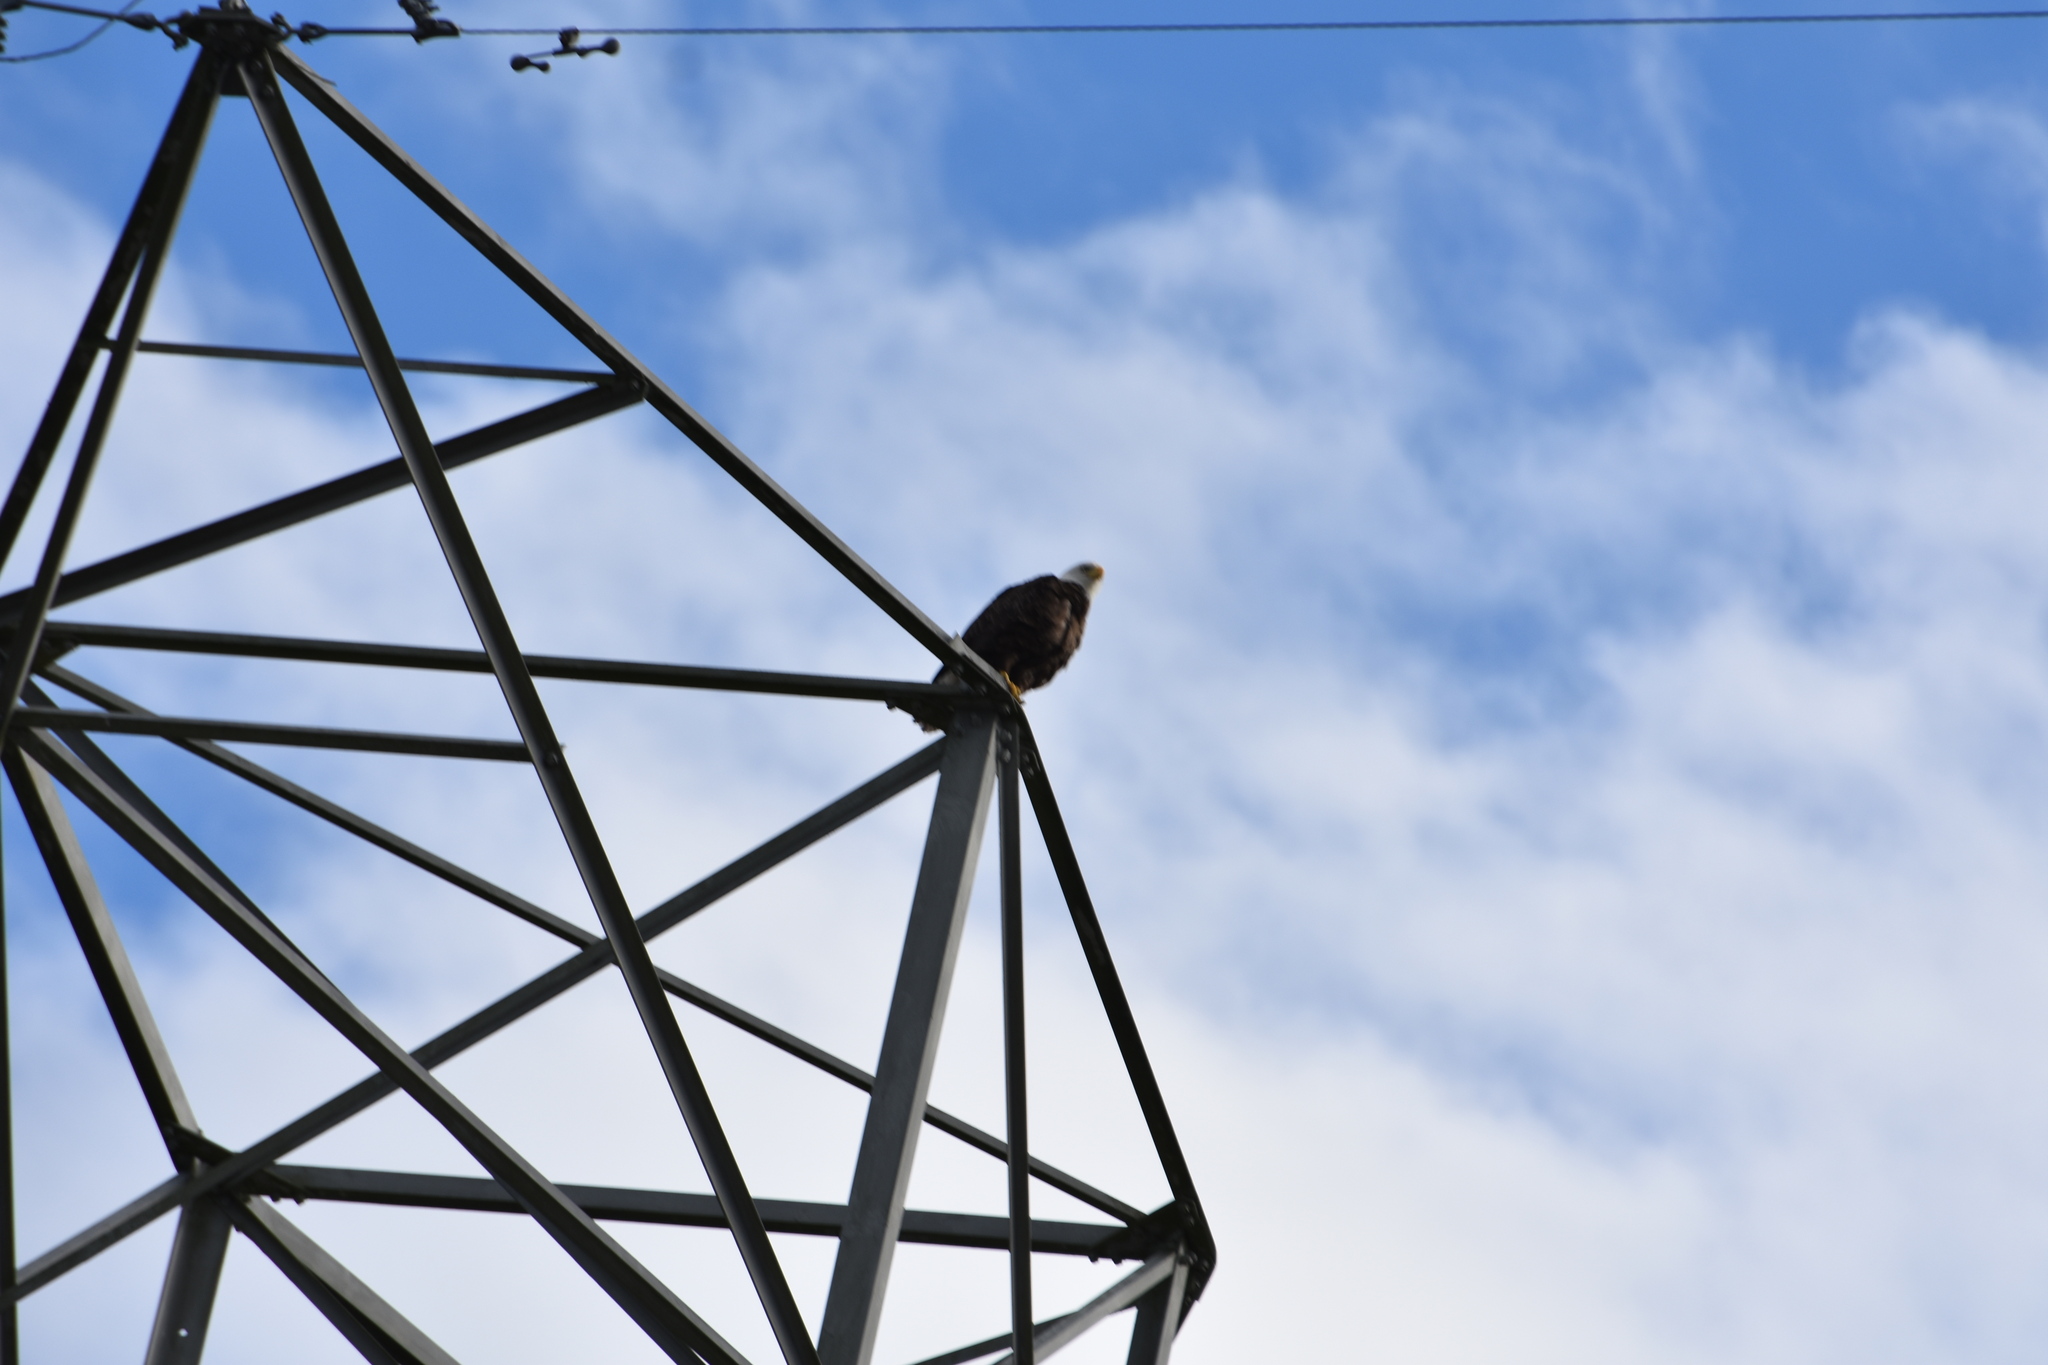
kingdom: Animalia
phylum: Chordata
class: Aves
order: Accipitriformes
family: Accipitridae
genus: Haliaeetus
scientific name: Haliaeetus leucocephalus
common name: Bald eagle
